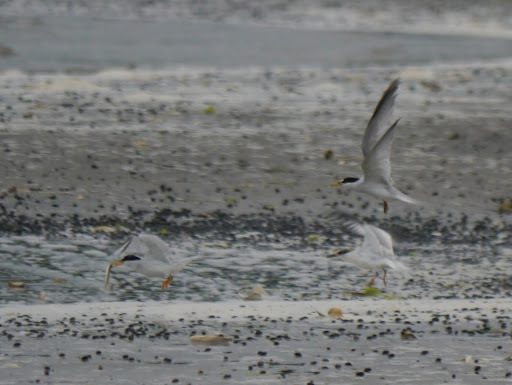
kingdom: Animalia
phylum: Chordata
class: Aves
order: Charadriiformes
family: Laridae
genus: Sternula
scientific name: Sternula antillarum
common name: Least tern
